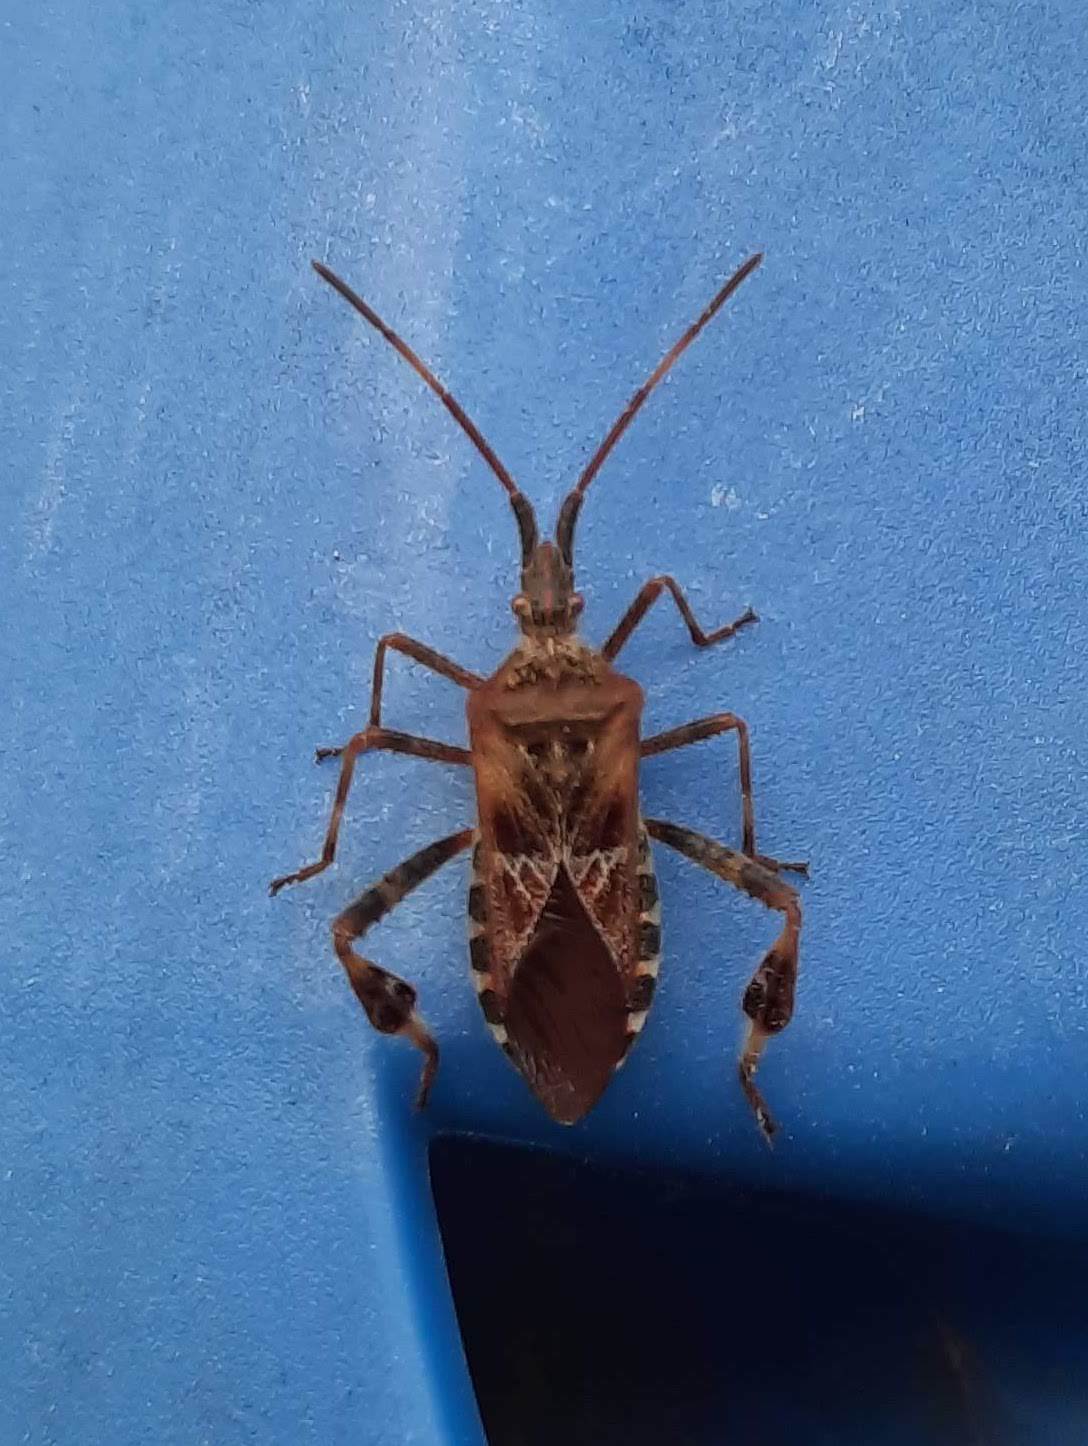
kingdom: Animalia
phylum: Arthropoda
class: Insecta
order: Hemiptera
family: Coreidae
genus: Leptoglossus
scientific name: Leptoglossus occidentalis
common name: Western conifer-seed bug
